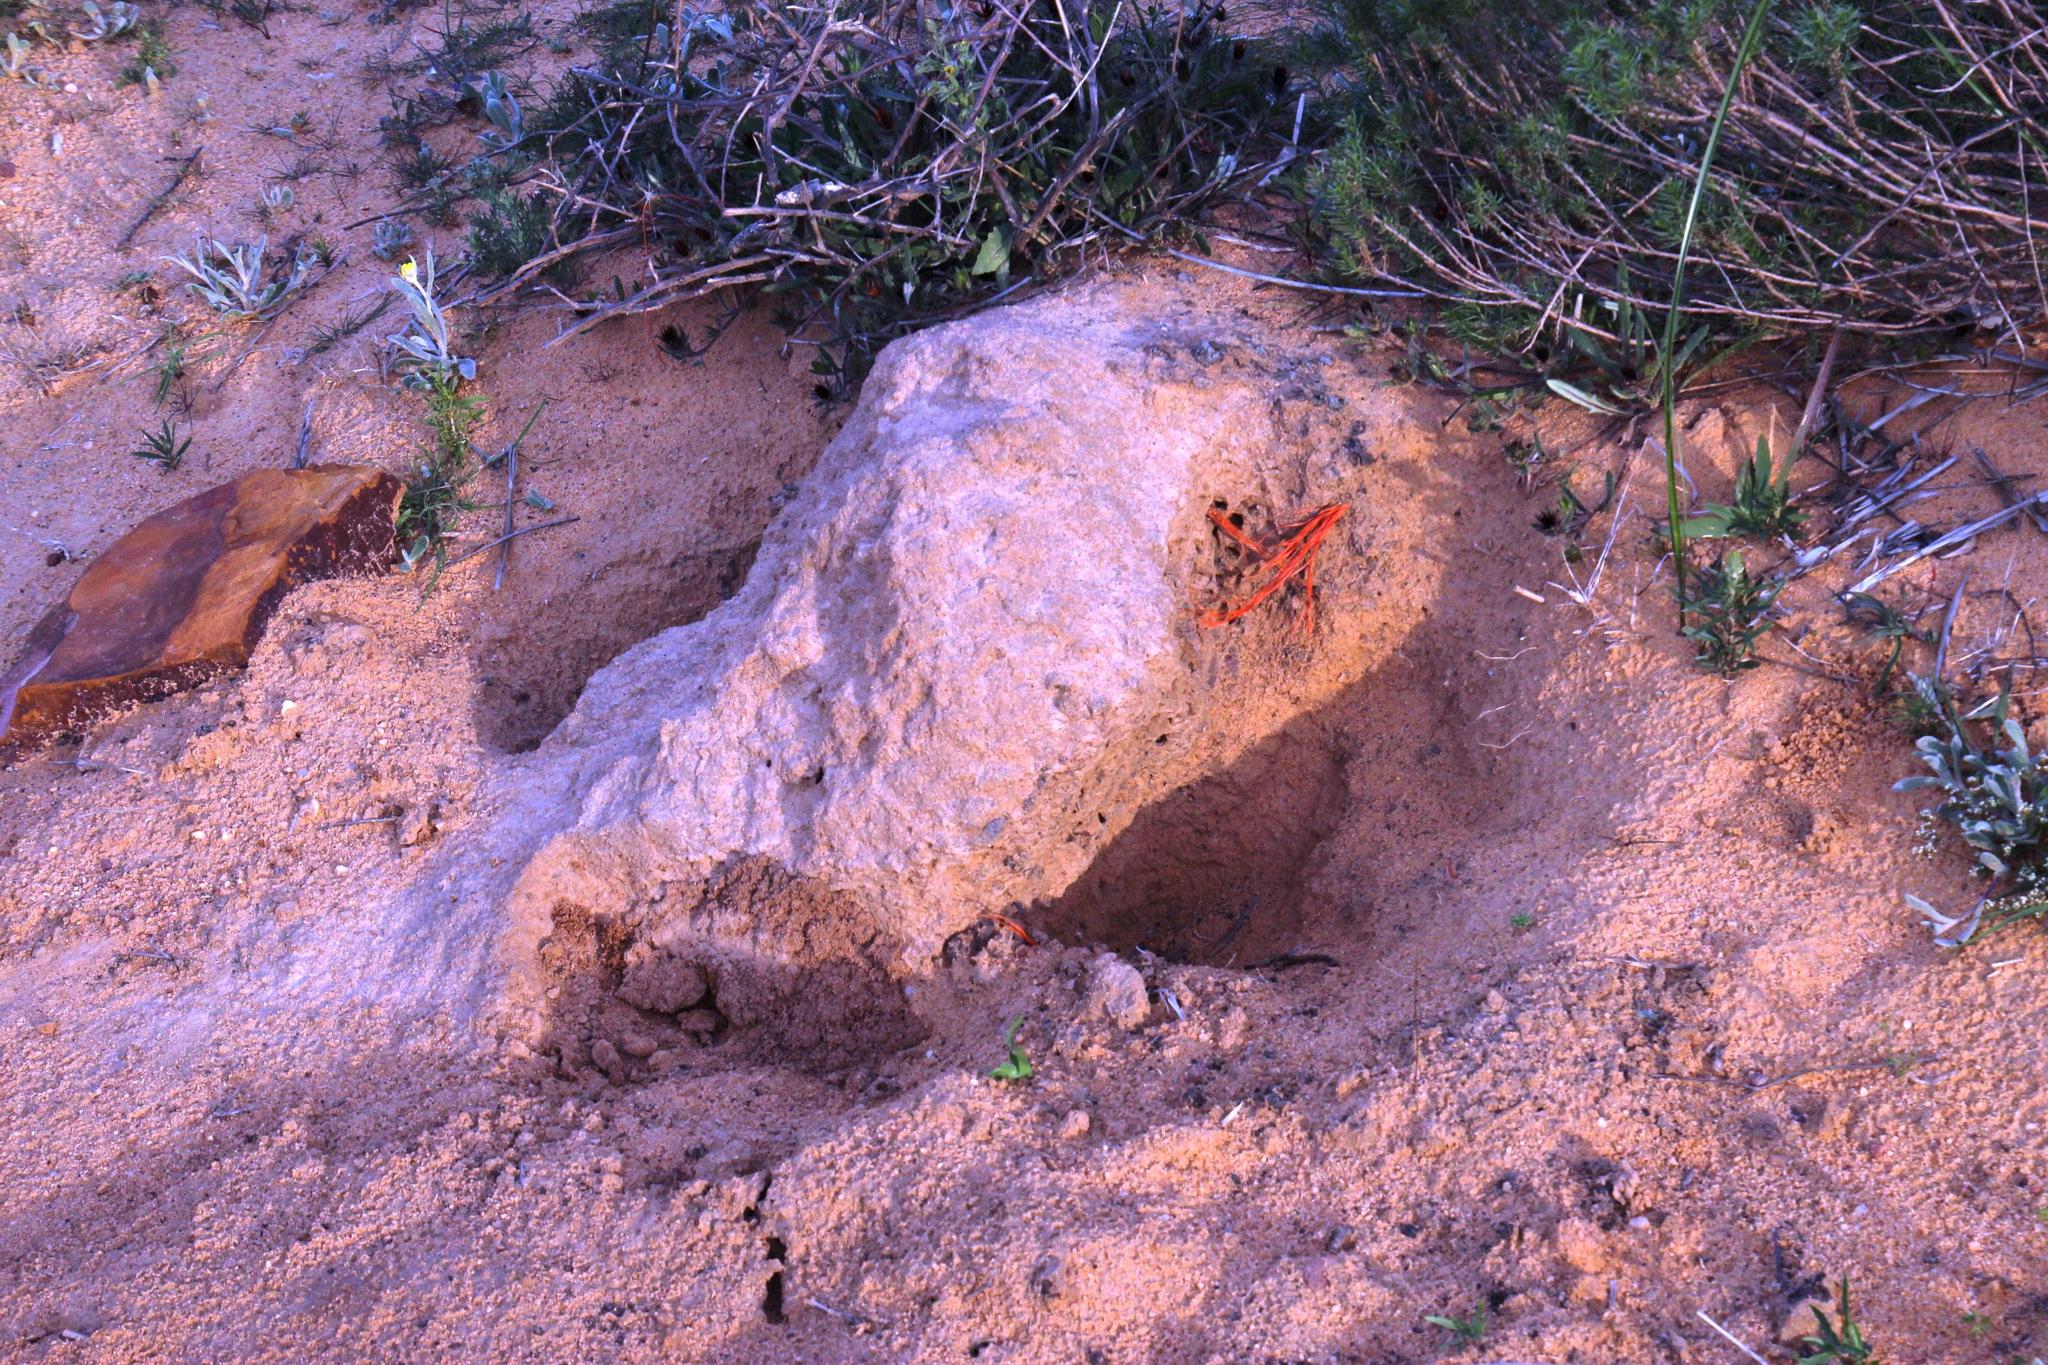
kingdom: Animalia
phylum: Chordata
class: Mammalia
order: Tubulidentata
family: Orycteropodidae
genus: Orycteropus
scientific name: Orycteropus afer
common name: Aardvark
